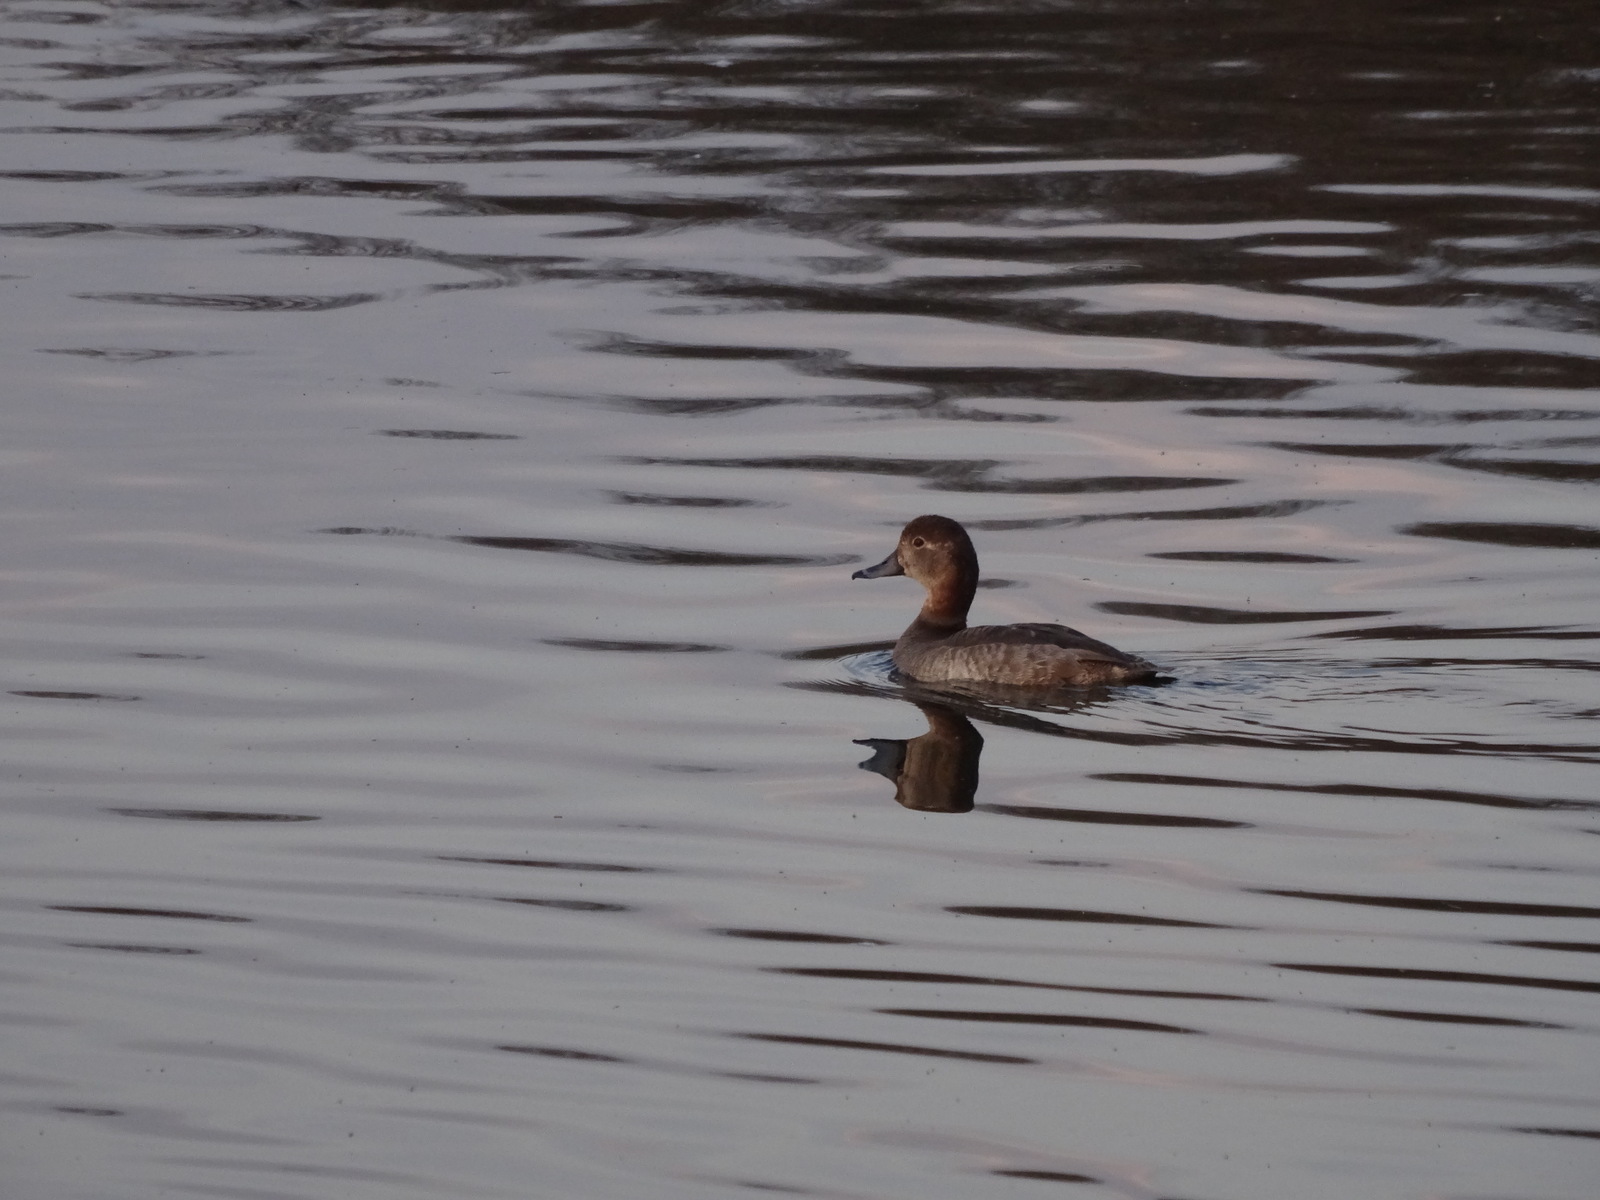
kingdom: Animalia
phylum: Chordata
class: Aves
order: Anseriformes
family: Anatidae
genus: Aythya
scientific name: Aythya americana
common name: Redhead
